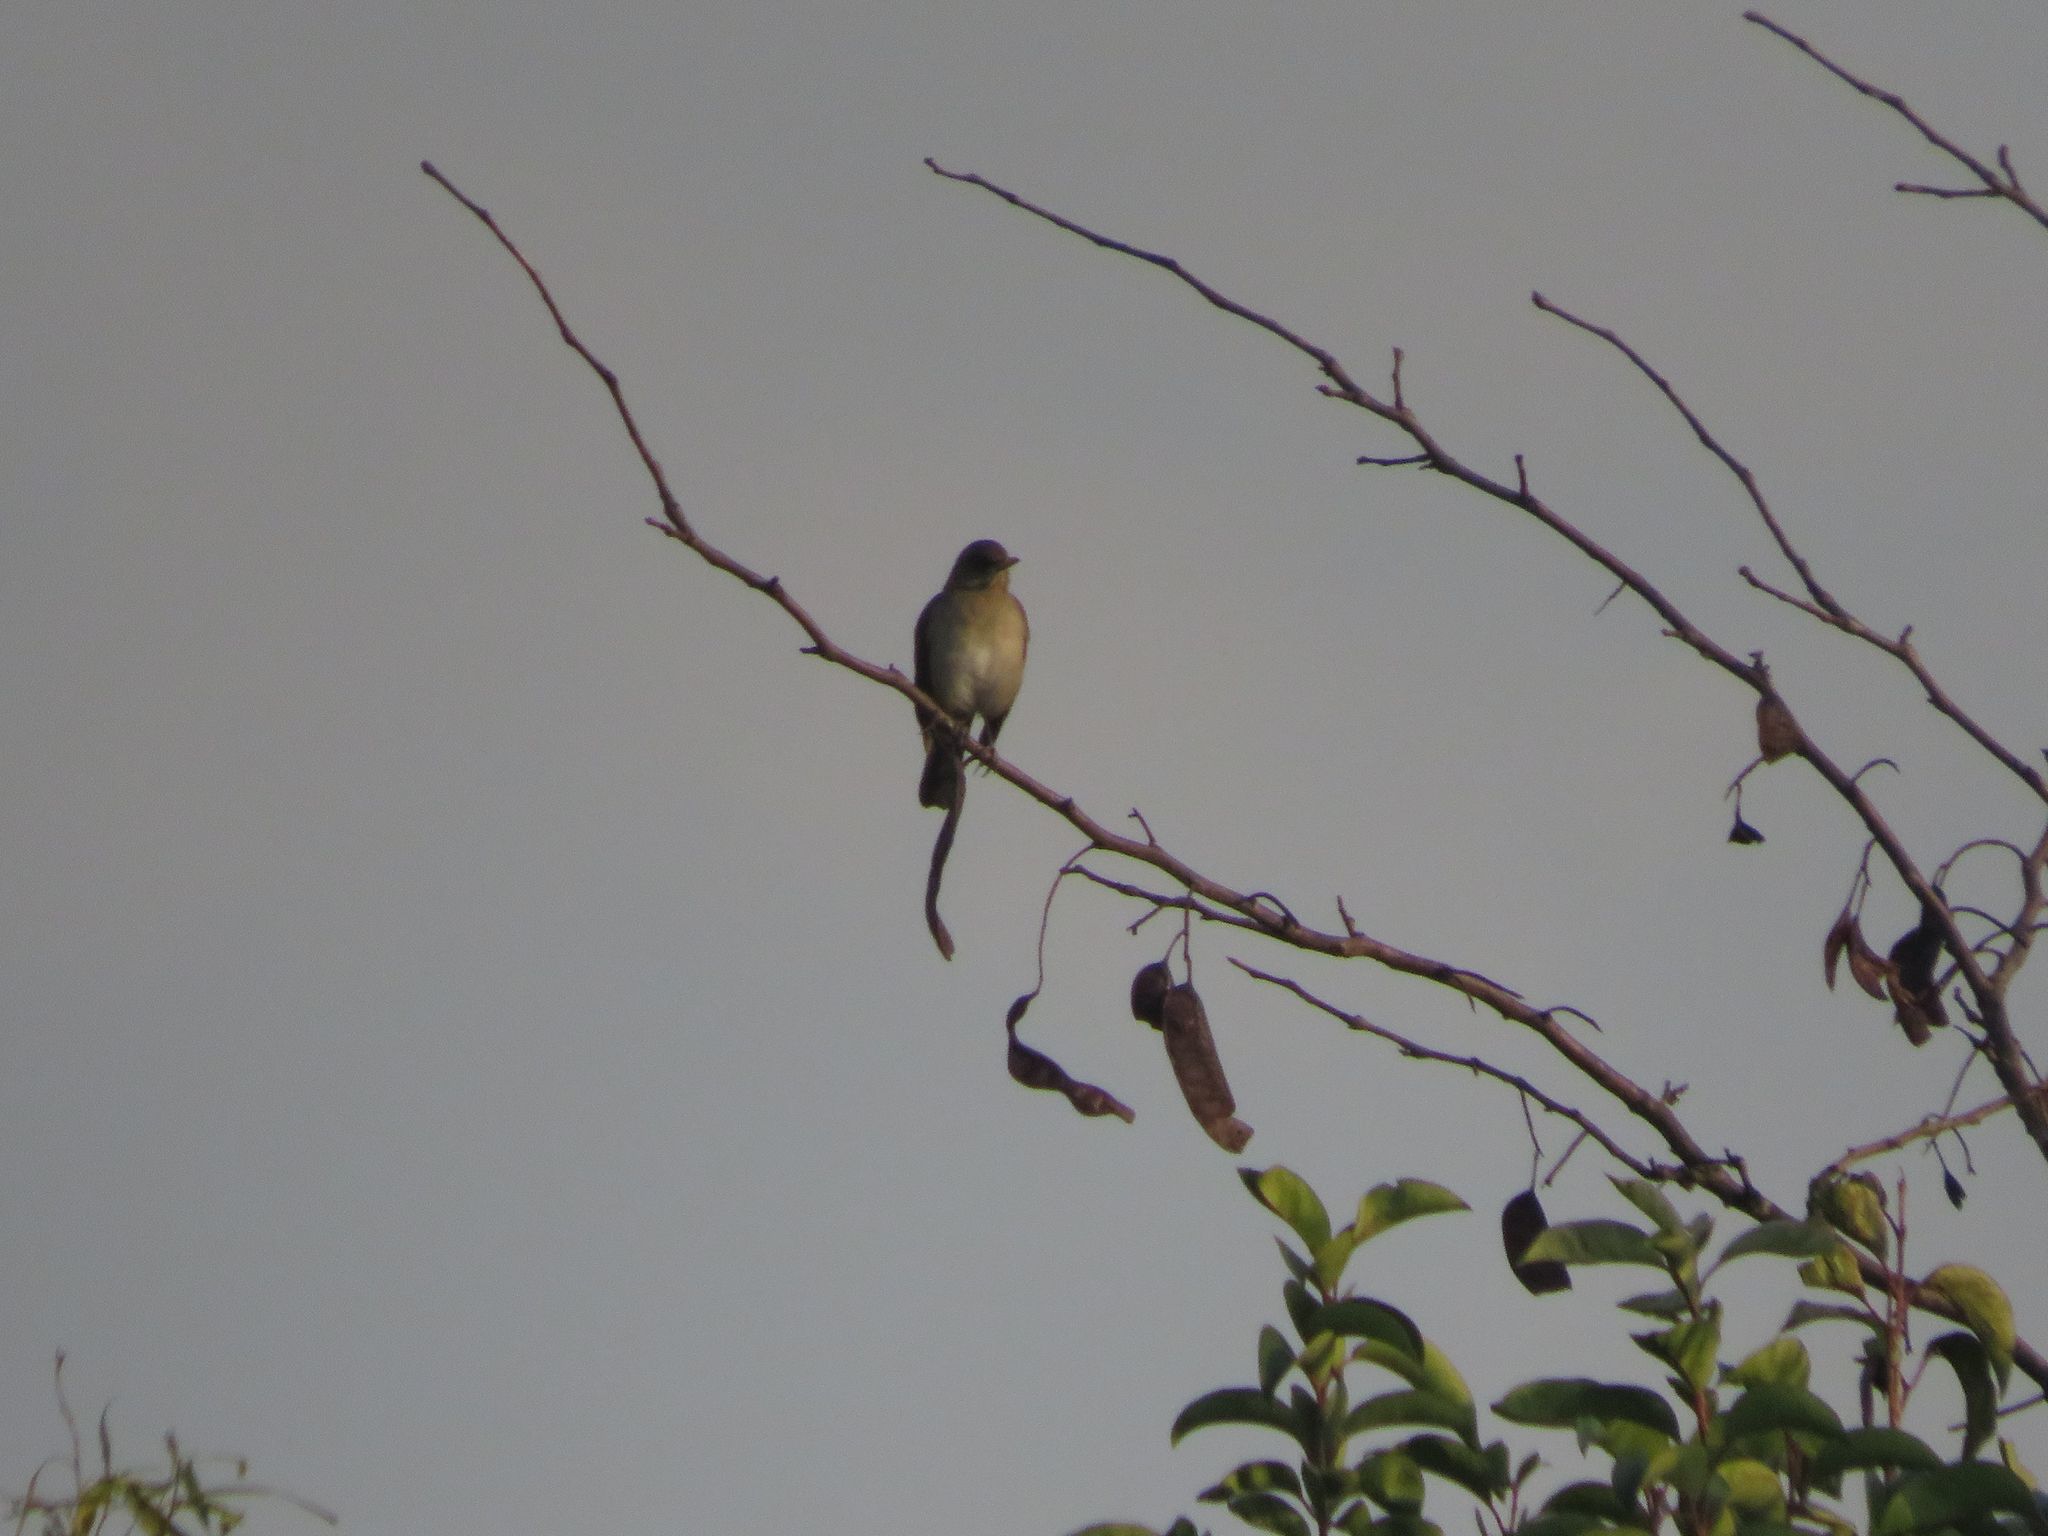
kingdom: Animalia
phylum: Chordata
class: Aves
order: Passeriformes
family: Turdidae
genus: Turdus
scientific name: Turdus amaurochalinus
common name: Creamy-bellied thrush
